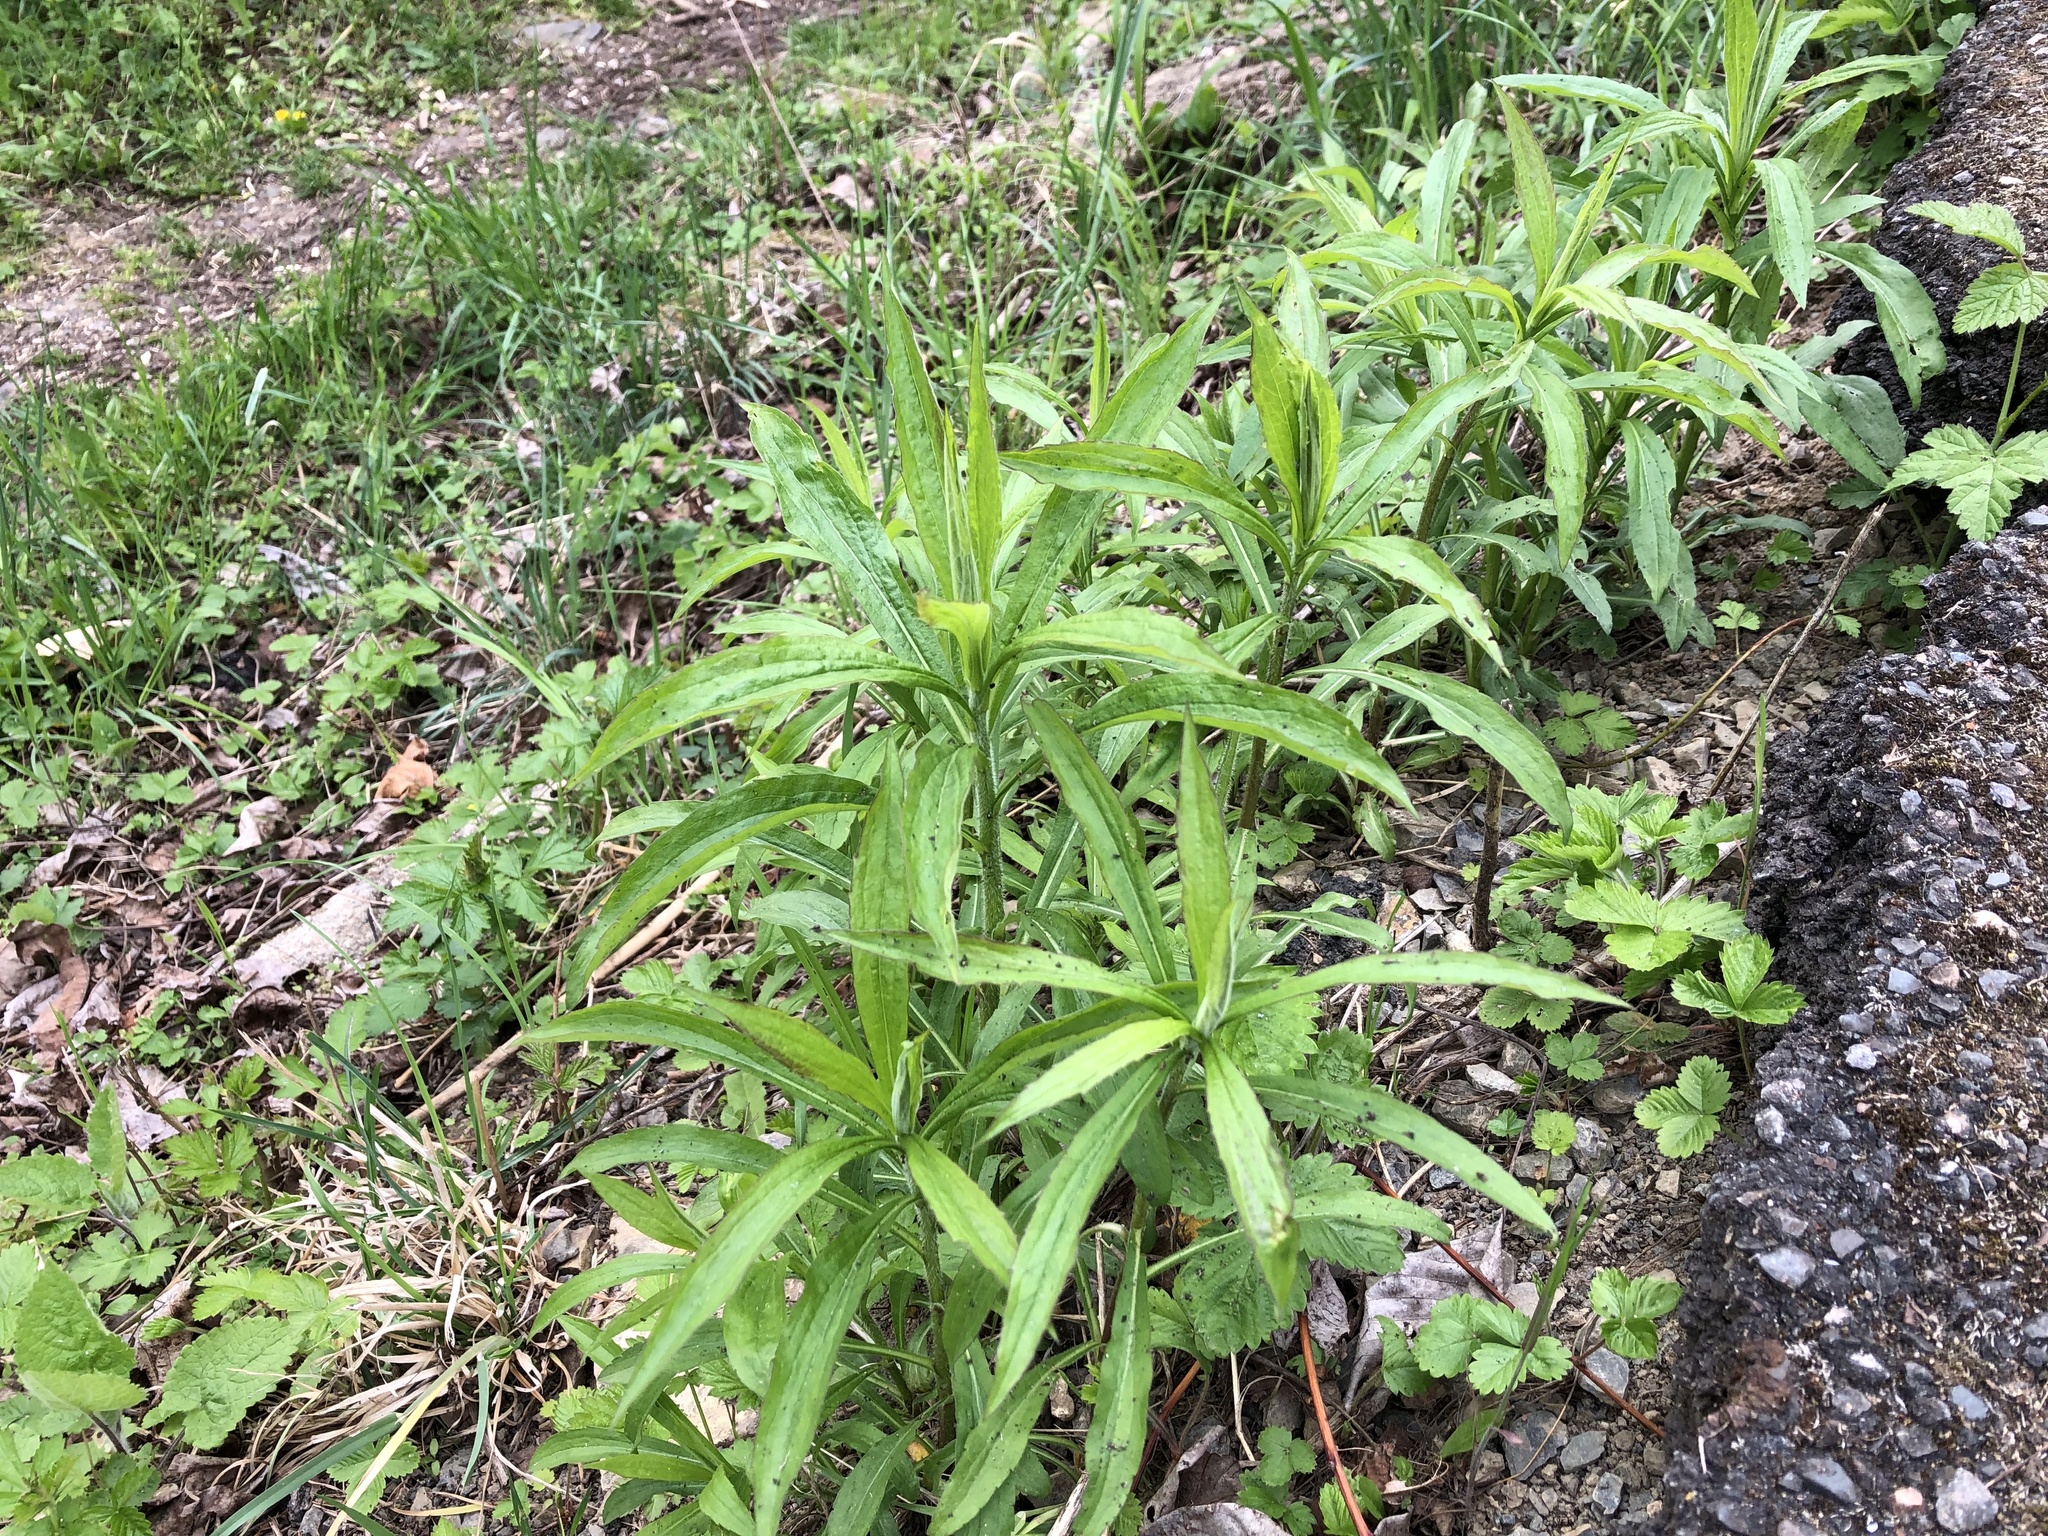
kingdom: Plantae
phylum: Tracheophyta
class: Magnoliopsida
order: Asterales
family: Asteraceae
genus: Solidago
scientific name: Solidago canadensis
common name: Canada goldenrod
